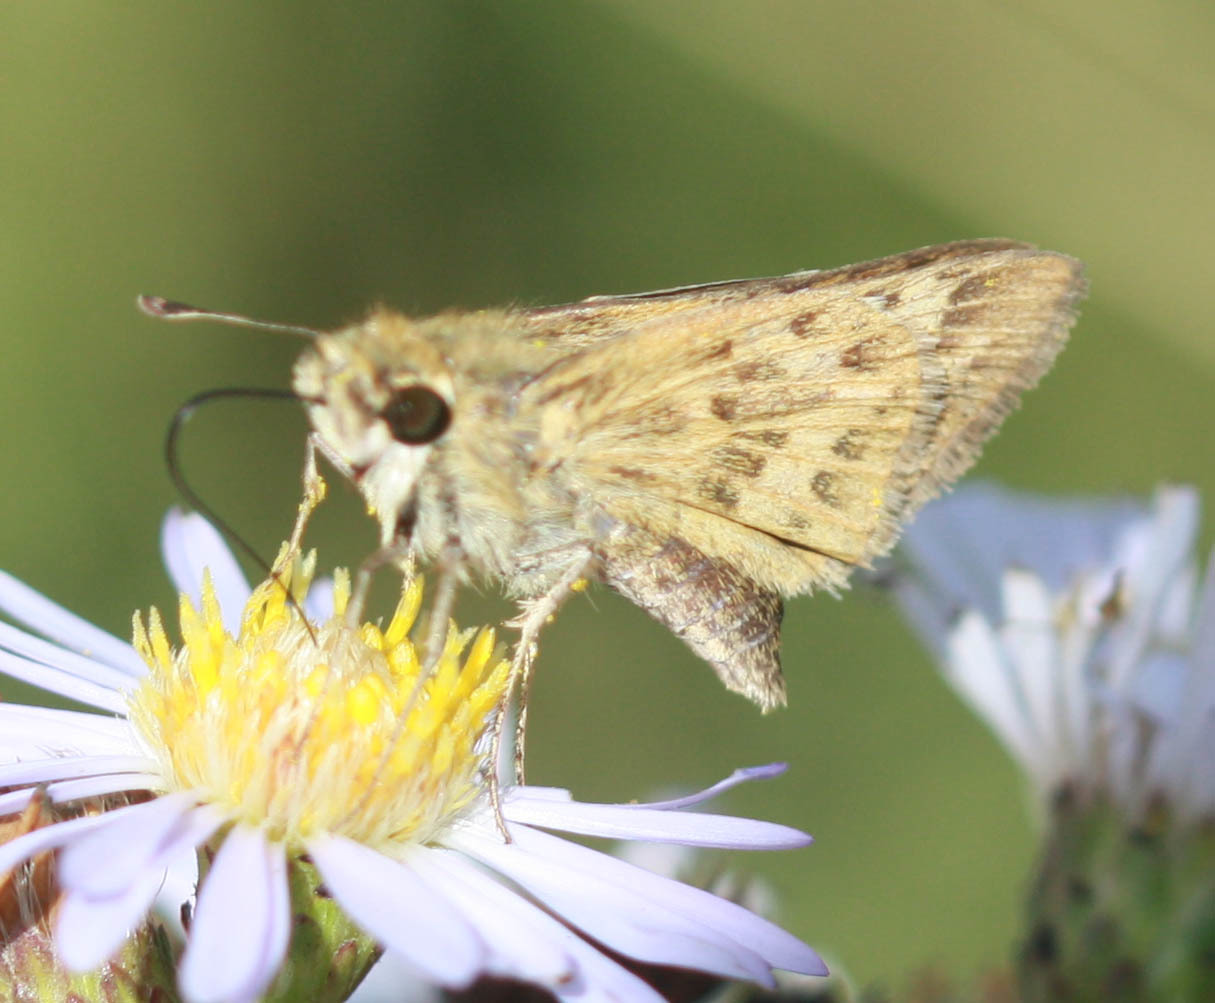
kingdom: Animalia
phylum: Arthropoda
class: Insecta
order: Lepidoptera
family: Hesperiidae
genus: Polites
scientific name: Polites sabuleti
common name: Sandhill skipper
